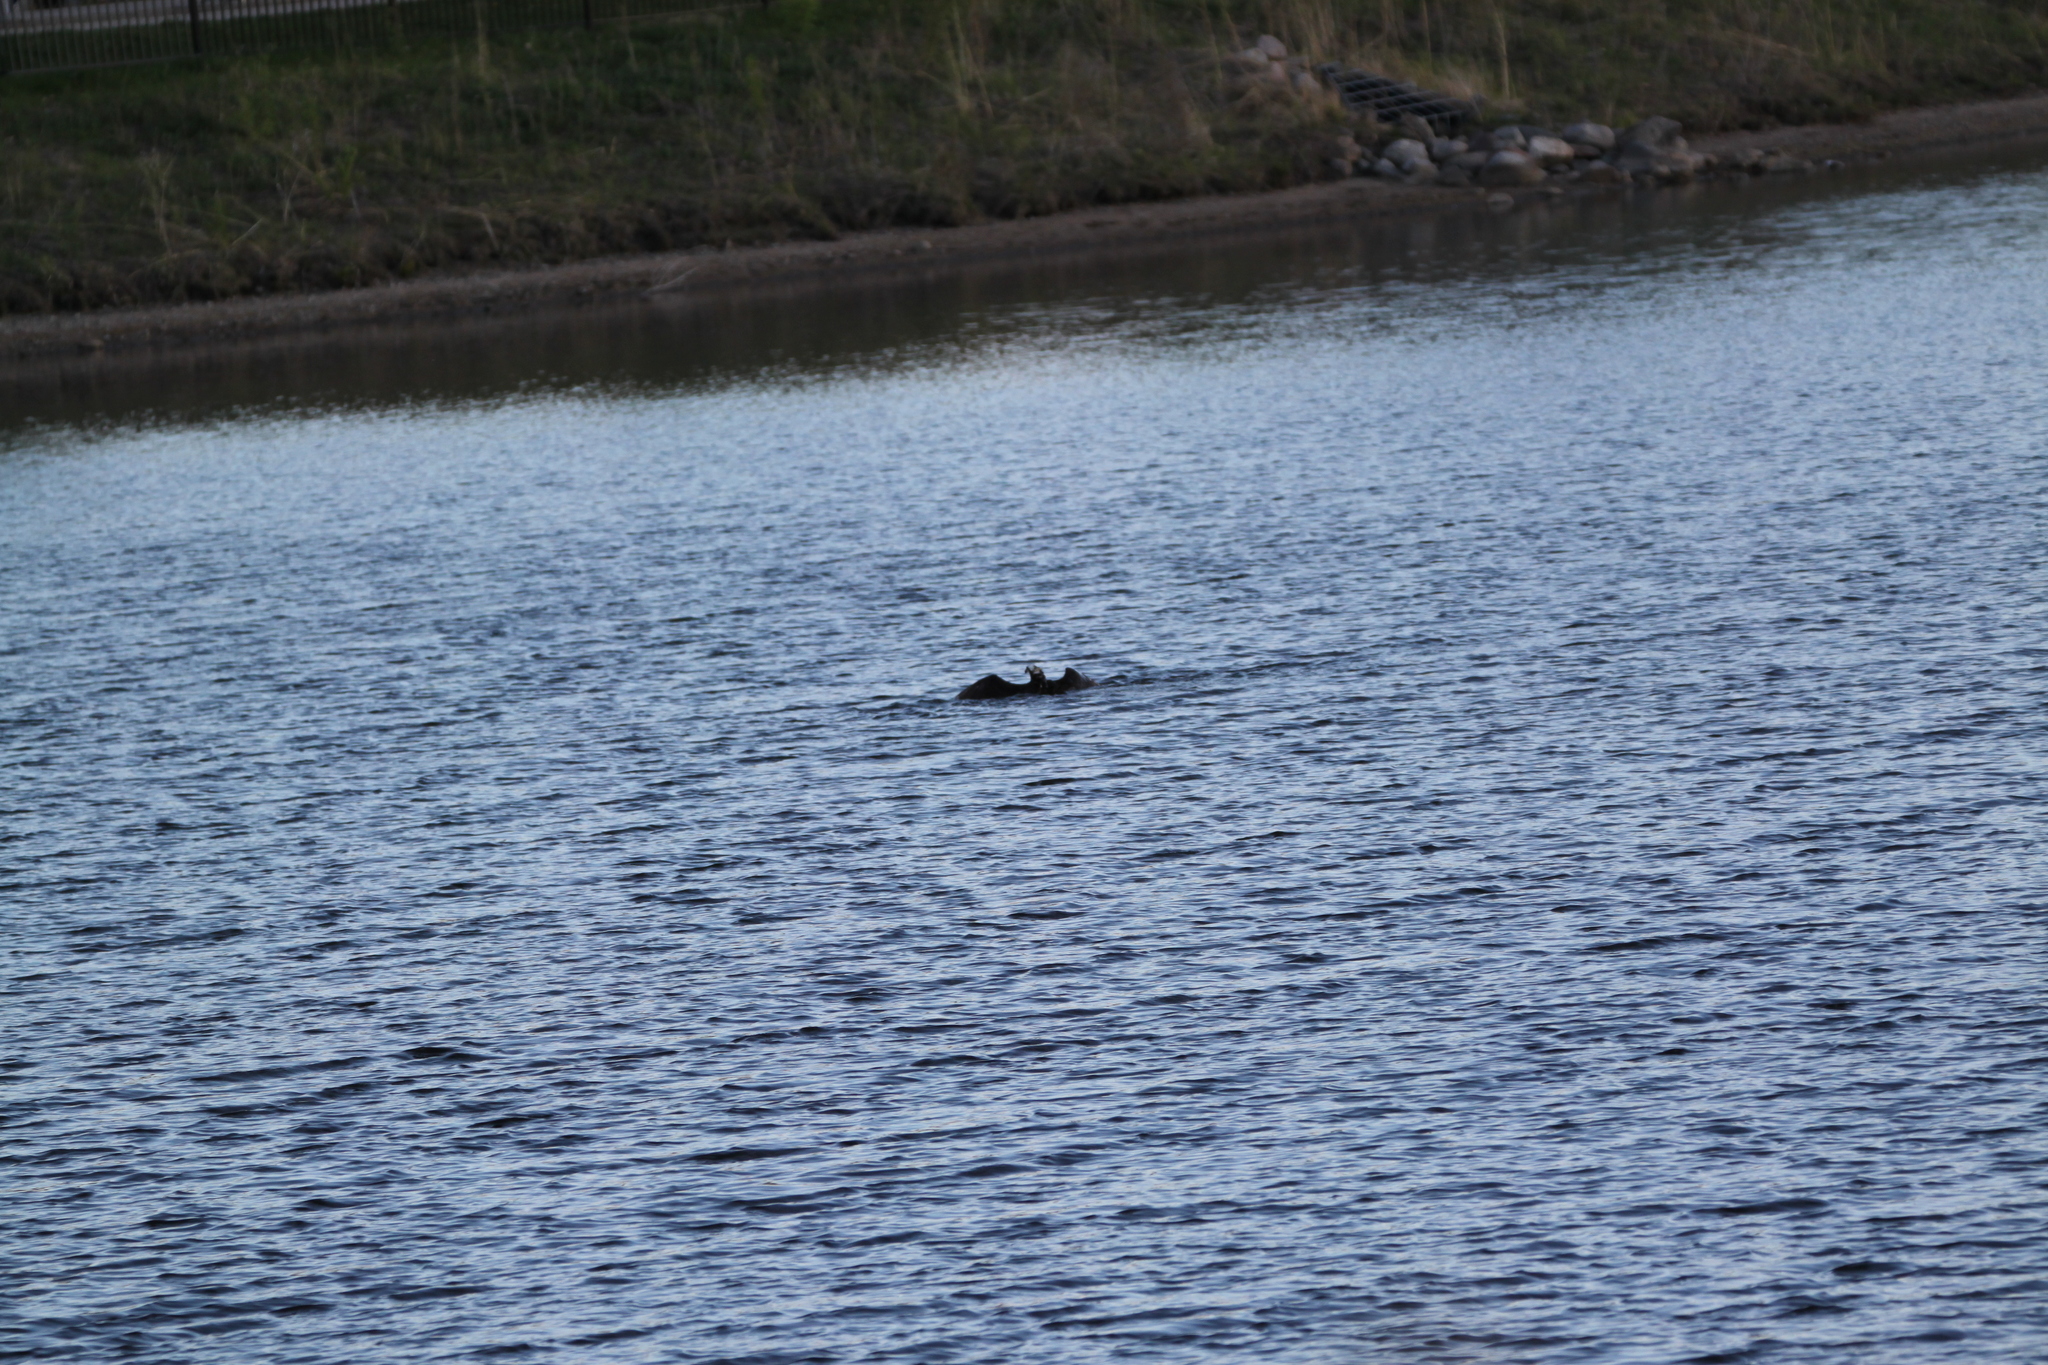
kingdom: Animalia
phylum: Chordata
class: Aves
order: Accipitriformes
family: Pandionidae
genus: Pandion
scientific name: Pandion haliaetus
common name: Osprey
